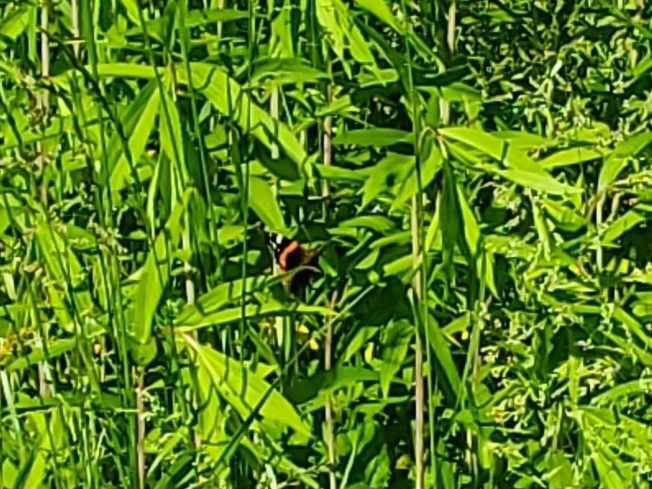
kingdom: Animalia
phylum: Arthropoda
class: Insecta
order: Lepidoptera
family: Nymphalidae
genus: Vanessa
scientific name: Vanessa atalanta
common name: Red admiral
